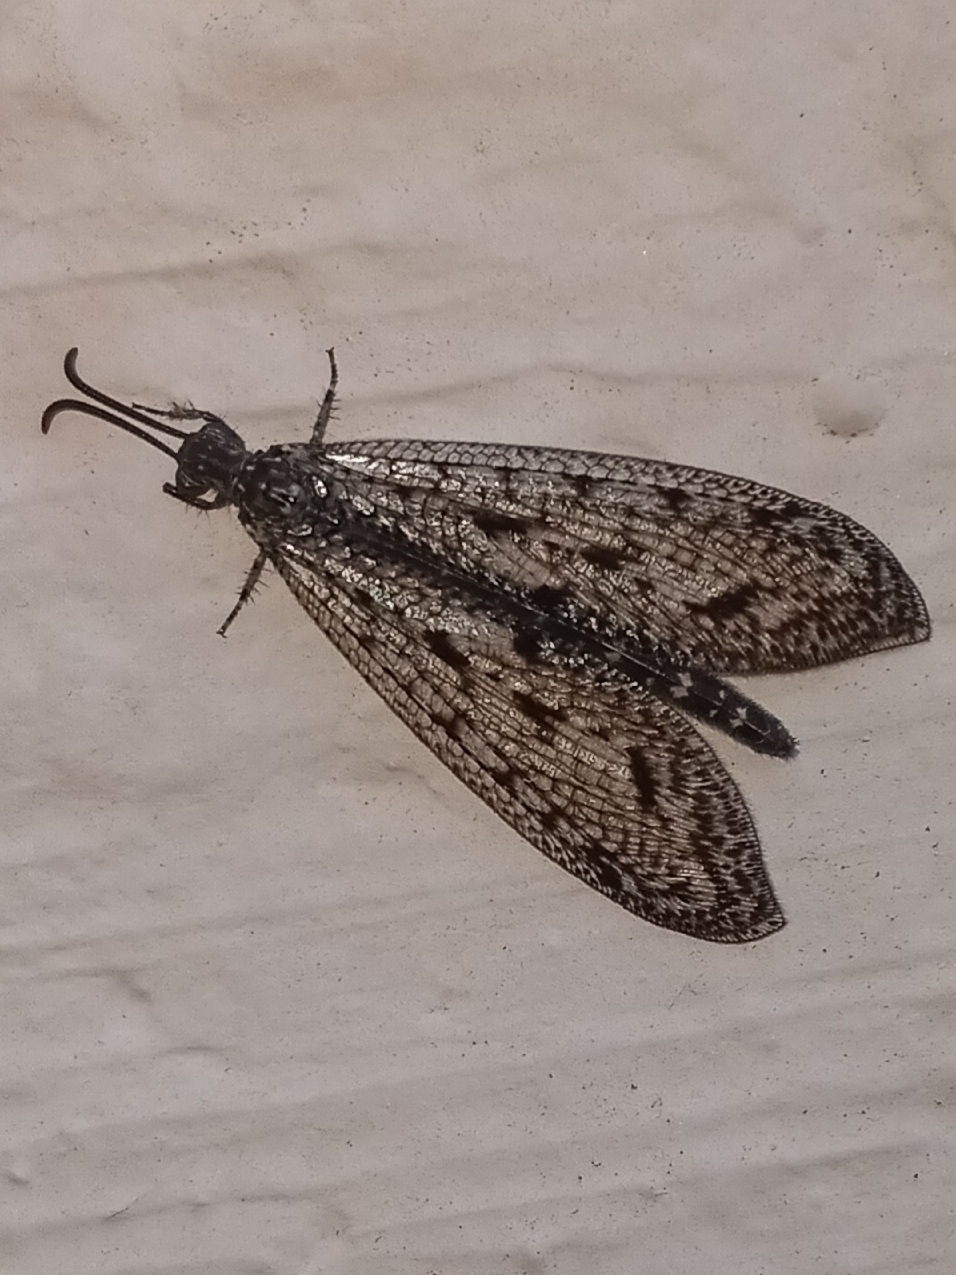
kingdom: Animalia
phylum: Arthropoda
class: Insecta
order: Neuroptera
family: Myrmeleontidae
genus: Brachynemurus
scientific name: Brachynemurus nebulosus
